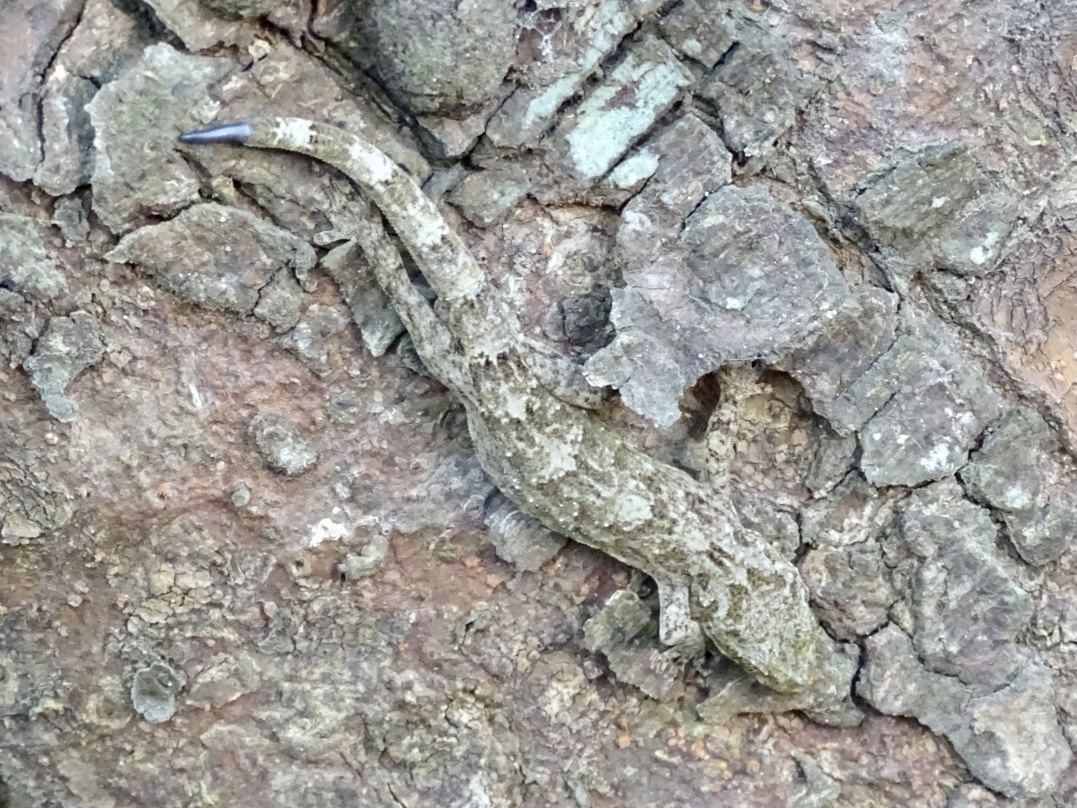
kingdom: Animalia
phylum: Chordata
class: Squamata
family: Gekkonidae
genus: Gekko
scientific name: Gekko chinensis
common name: Gray's chinese gecko
